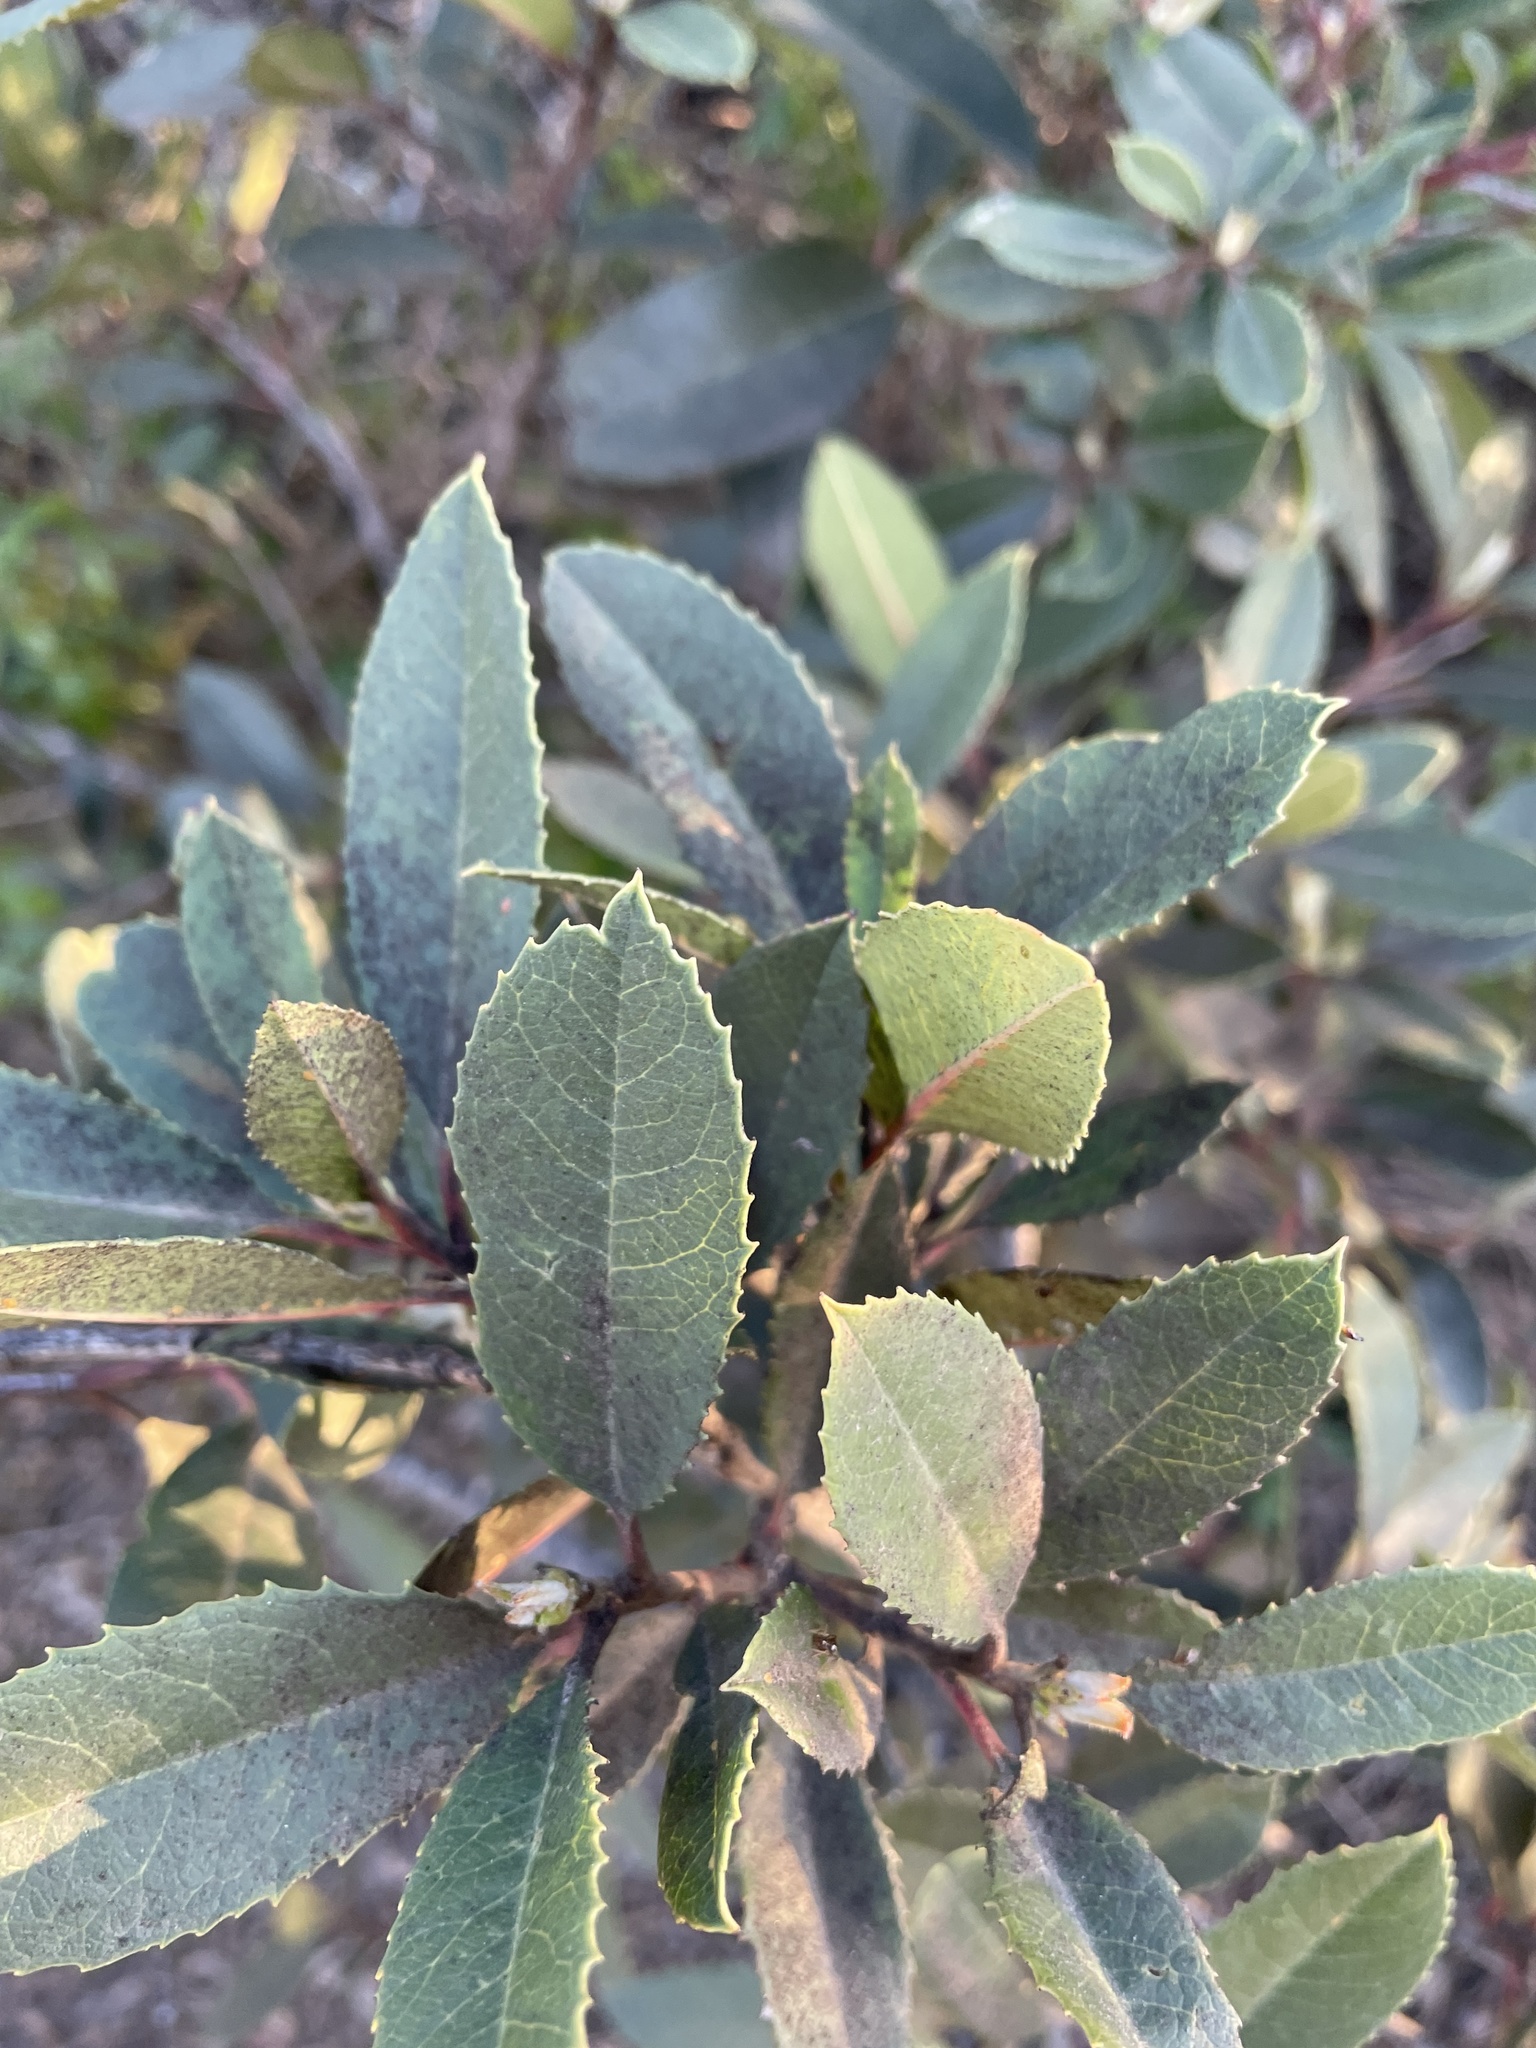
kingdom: Plantae
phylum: Tracheophyta
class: Magnoliopsida
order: Rosales
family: Rosaceae
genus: Heteromeles
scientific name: Heteromeles arbutifolia
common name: California-holly
